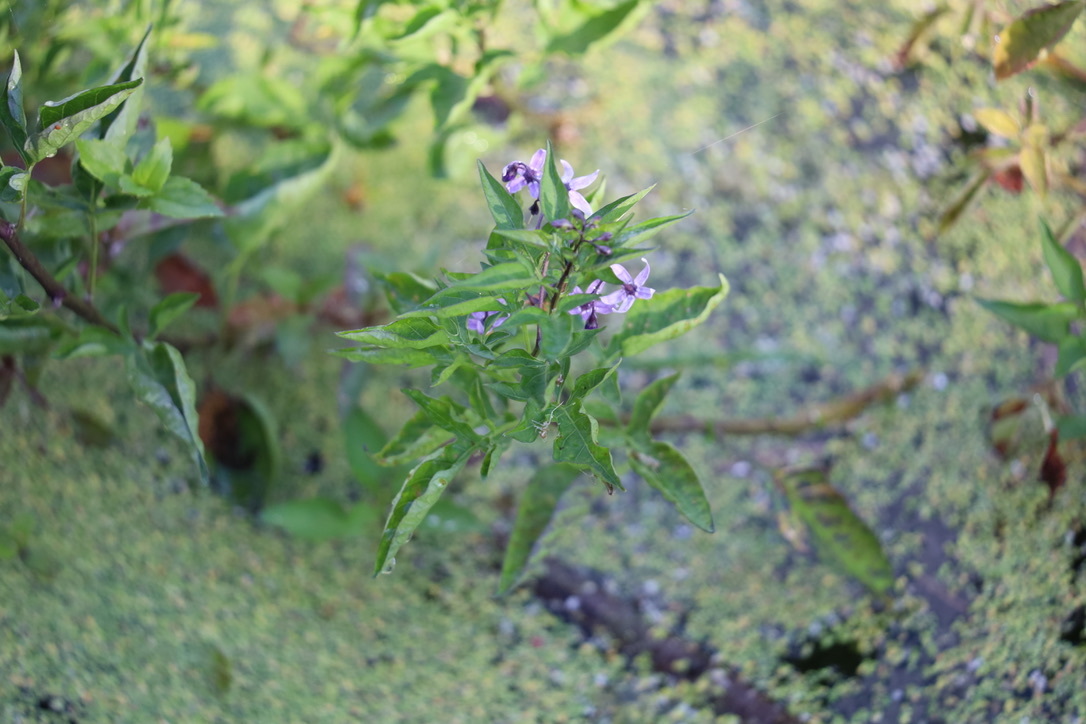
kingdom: Plantae
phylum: Tracheophyta
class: Magnoliopsida
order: Solanales
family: Solanaceae
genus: Solanum
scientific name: Solanum dulcamara
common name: Climbing nightshade
